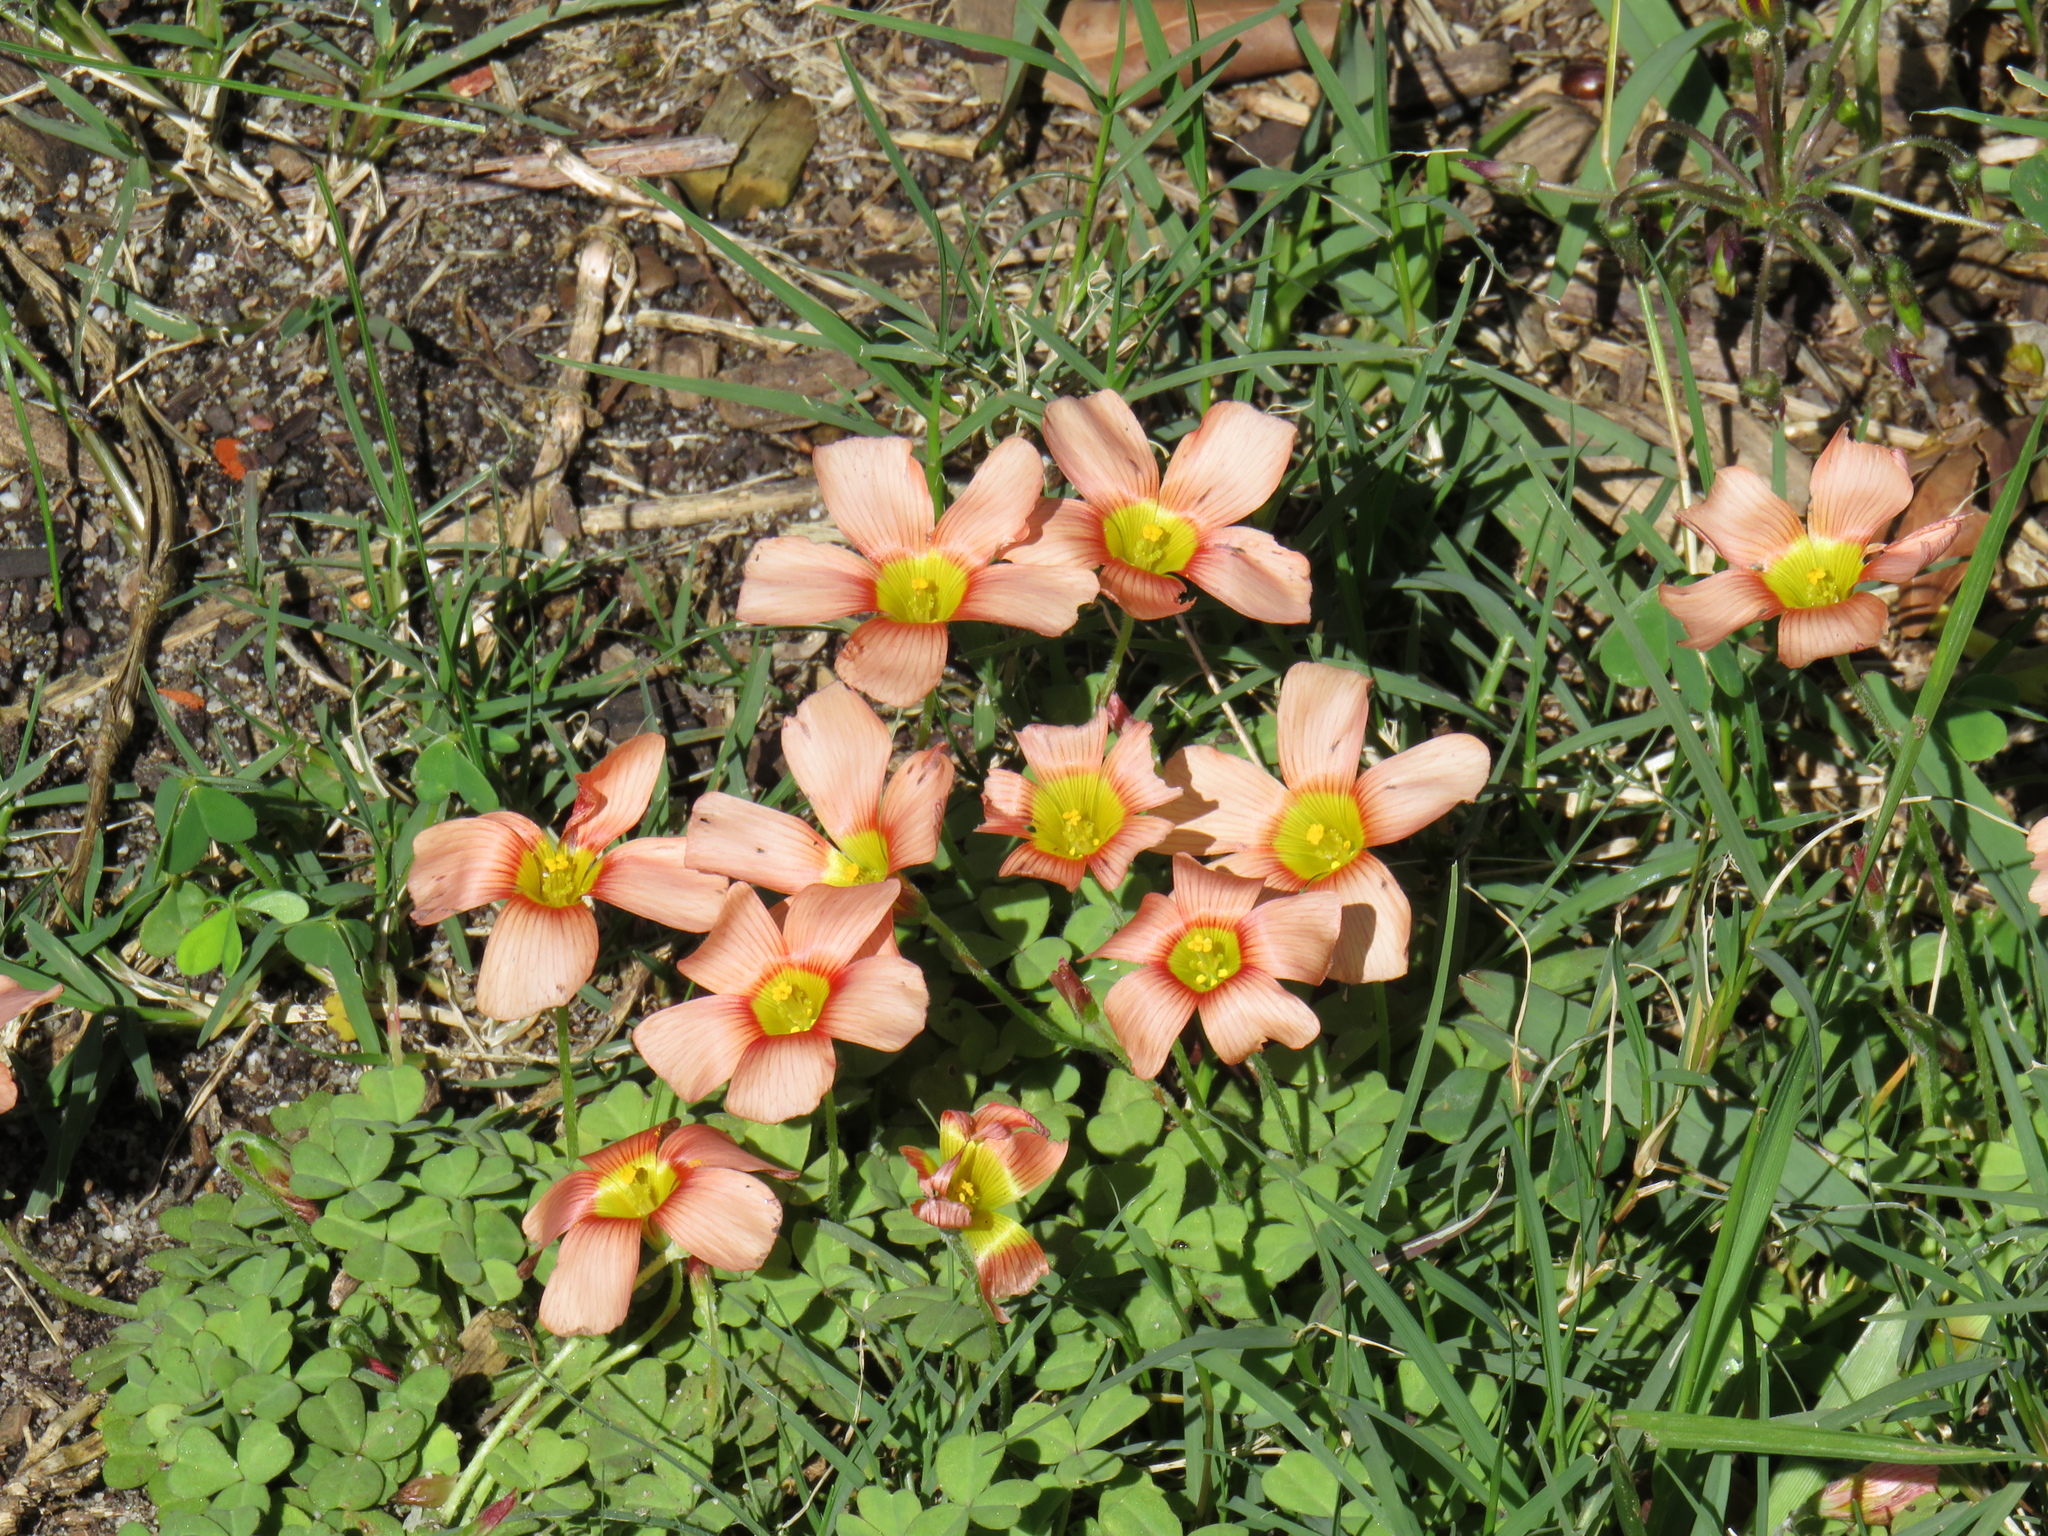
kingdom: Plantae
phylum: Tracheophyta
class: Magnoliopsida
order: Oxalidales
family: Oxalidaceae
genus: Oxalis
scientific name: Oxalis obtusa
